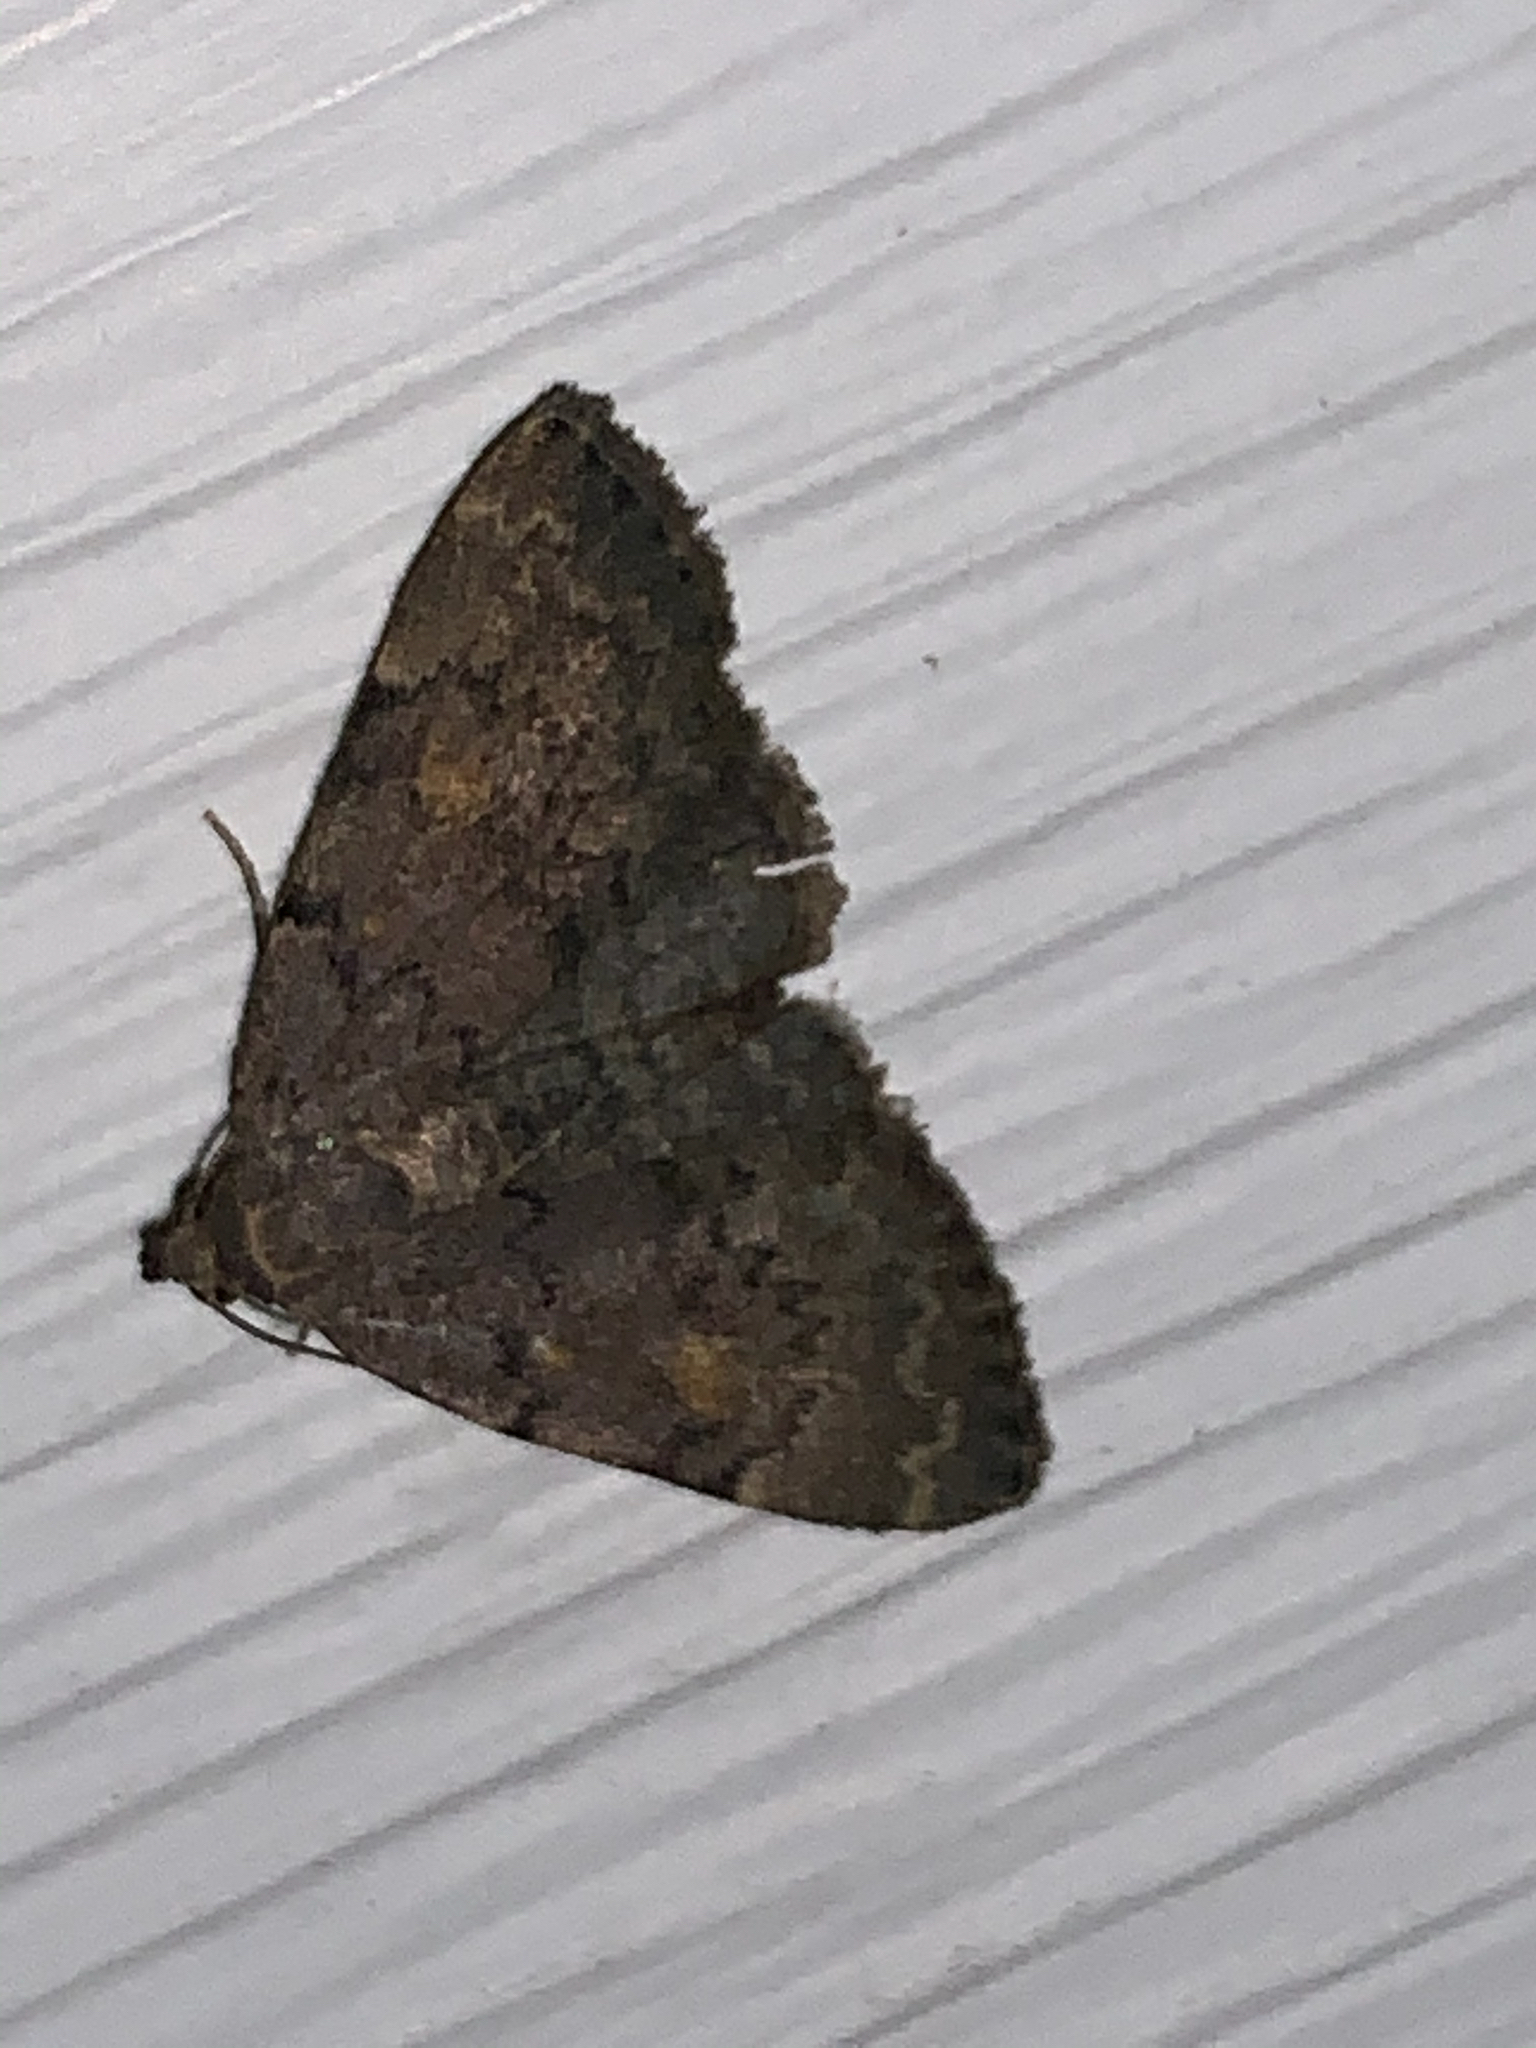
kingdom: Animalia
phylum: Arthropoda
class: Insecta
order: Lepidoptera
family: Erebidae
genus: Idia
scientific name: Idia aemula
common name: Common idia moth
